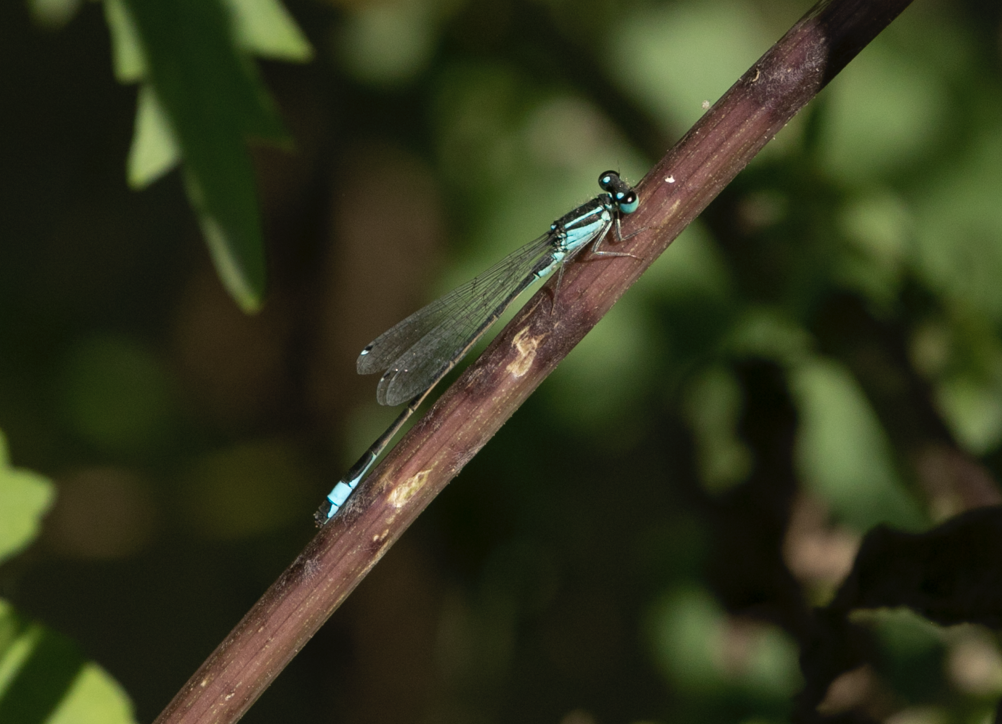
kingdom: Animalia
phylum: Arthropoda
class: Insecta
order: Odonata
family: Coenagrionidae
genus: Ischnura
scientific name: Ischnura elegans
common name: Blue-tailed damselfly
